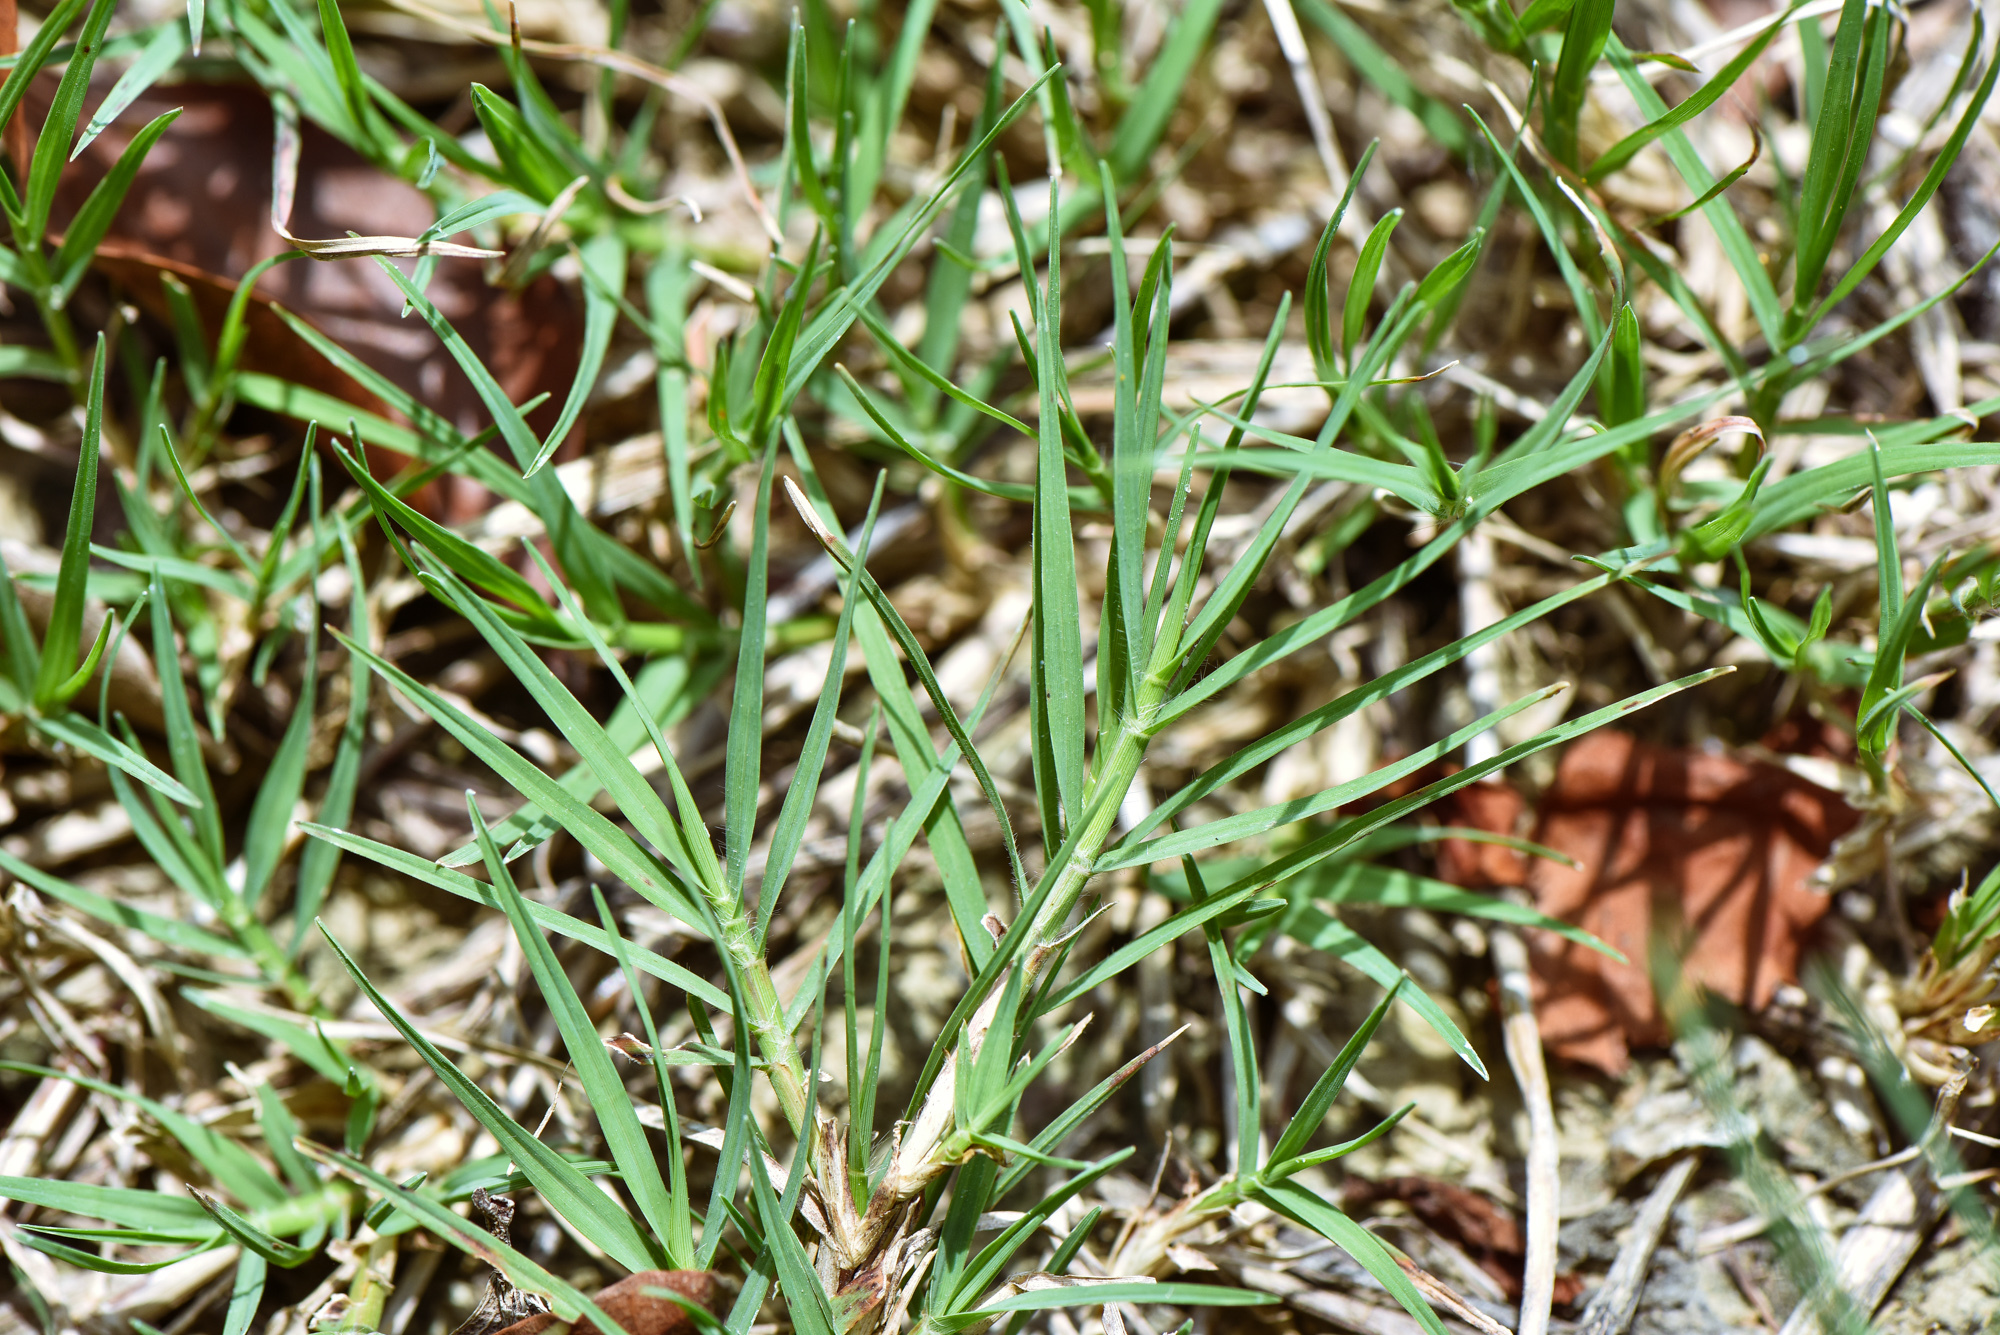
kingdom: Plantae
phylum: Tracheophyta
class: Liliopsida
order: Poales
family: Poaceae
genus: Cynodon
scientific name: Cynodon dactylon
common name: Bermuda grass
